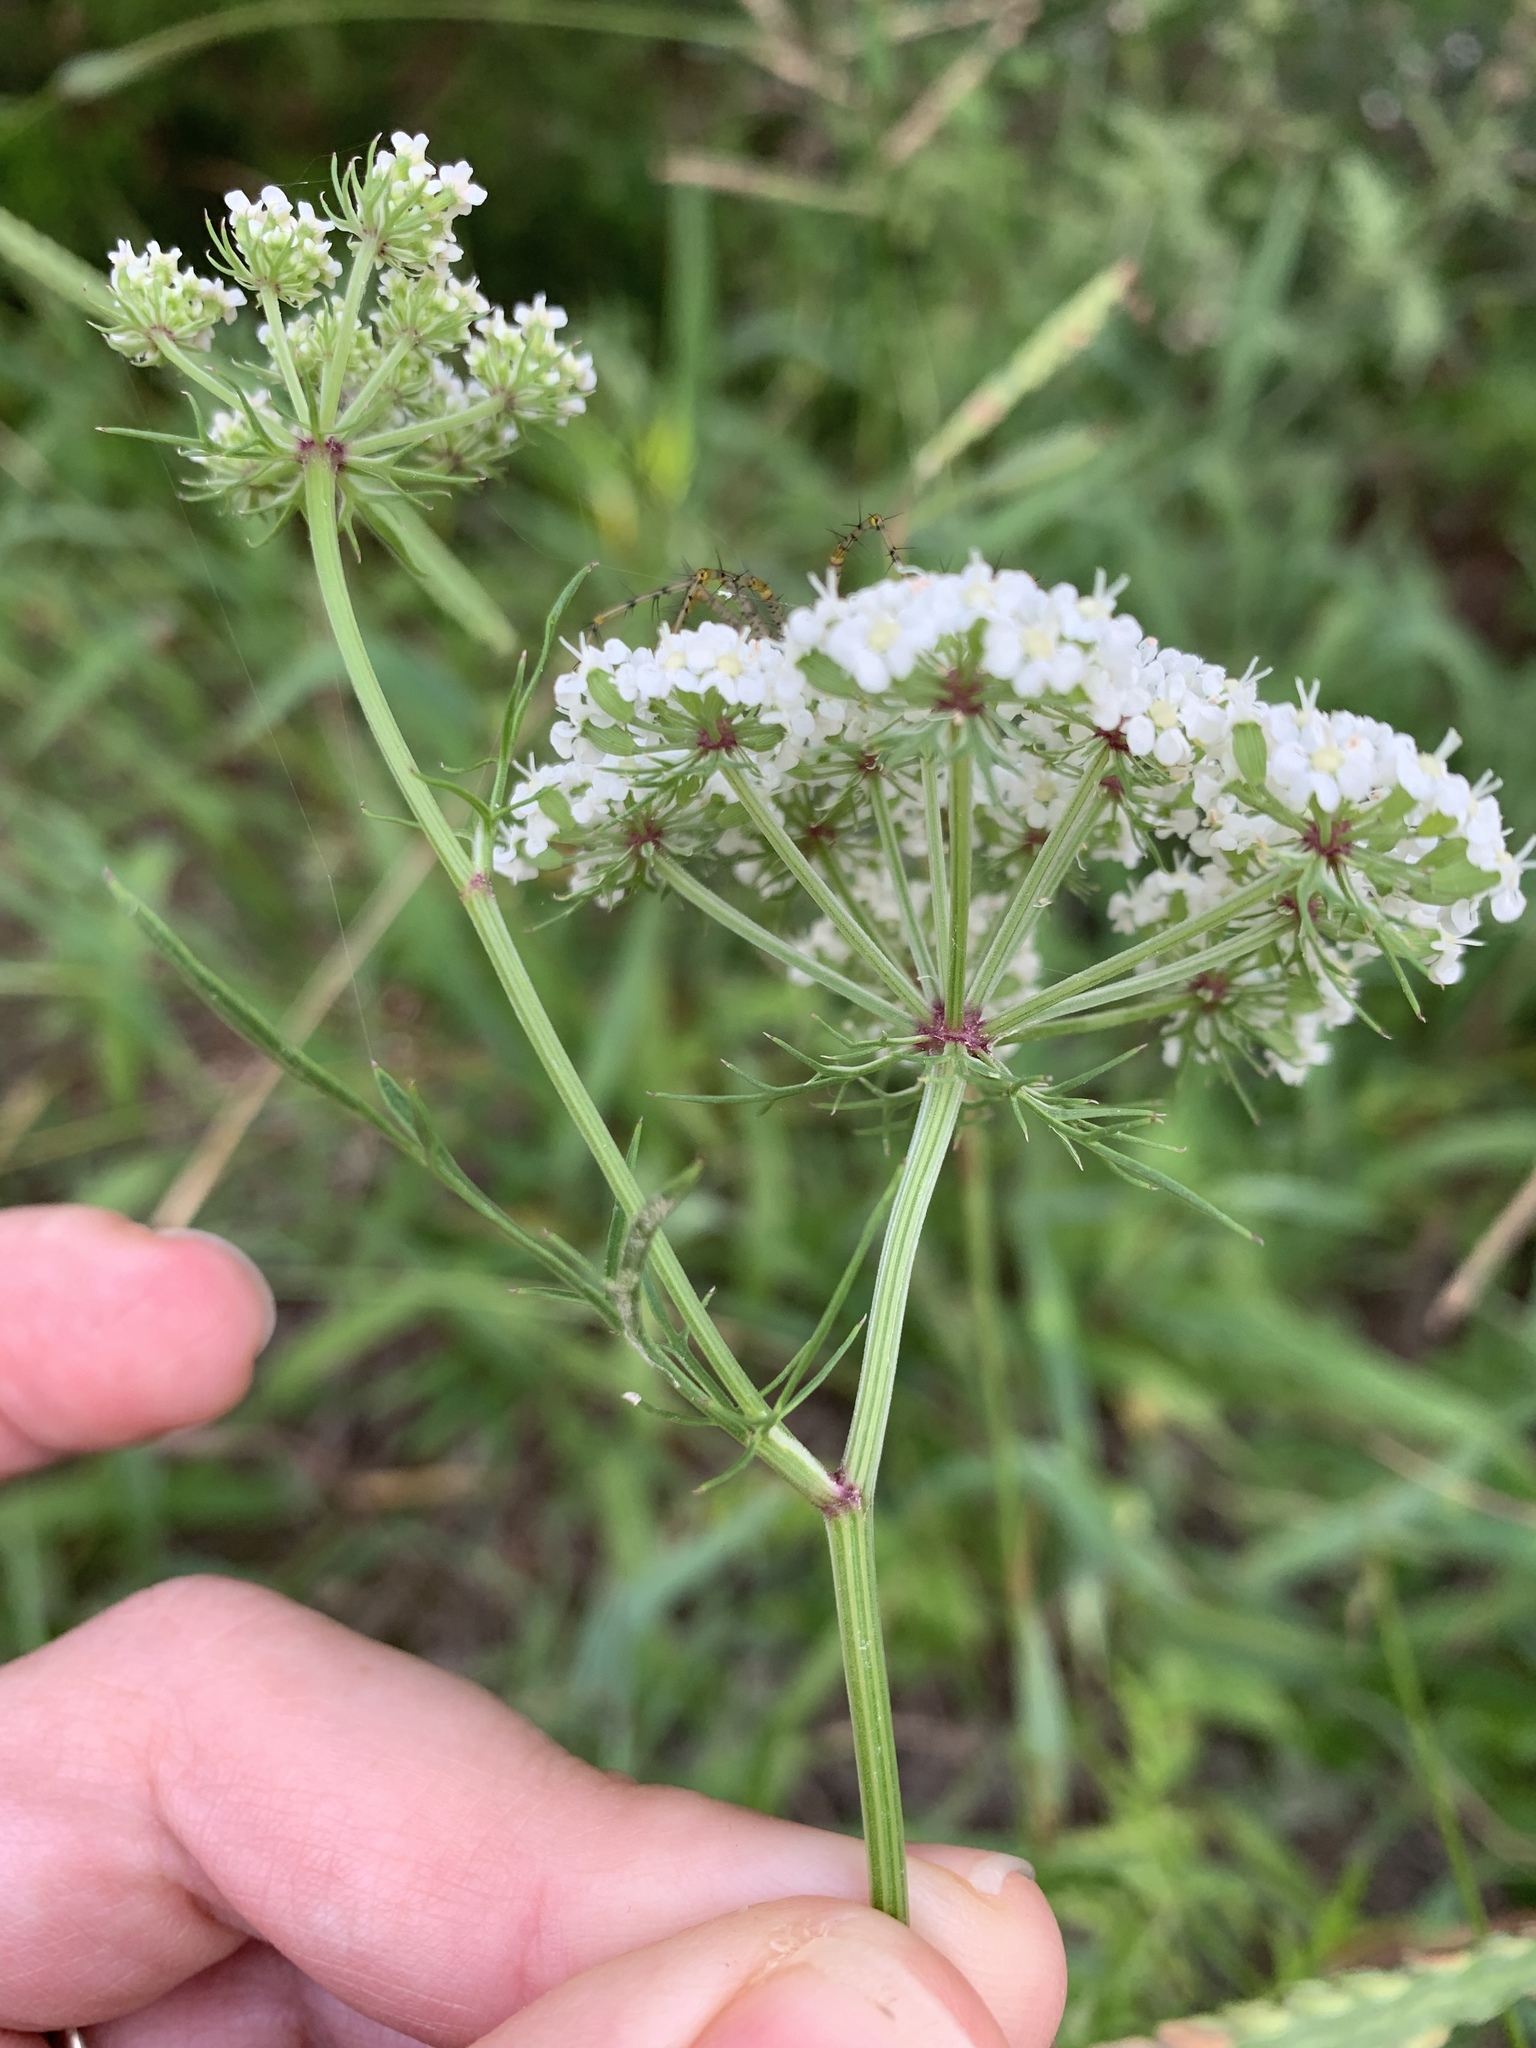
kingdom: Plantae
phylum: Tracheophyta
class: Magnoliopsida
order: Apiales
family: Apiaceae
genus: Daucosma
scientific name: Daucosma laciniatum
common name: Meadow-parasol
